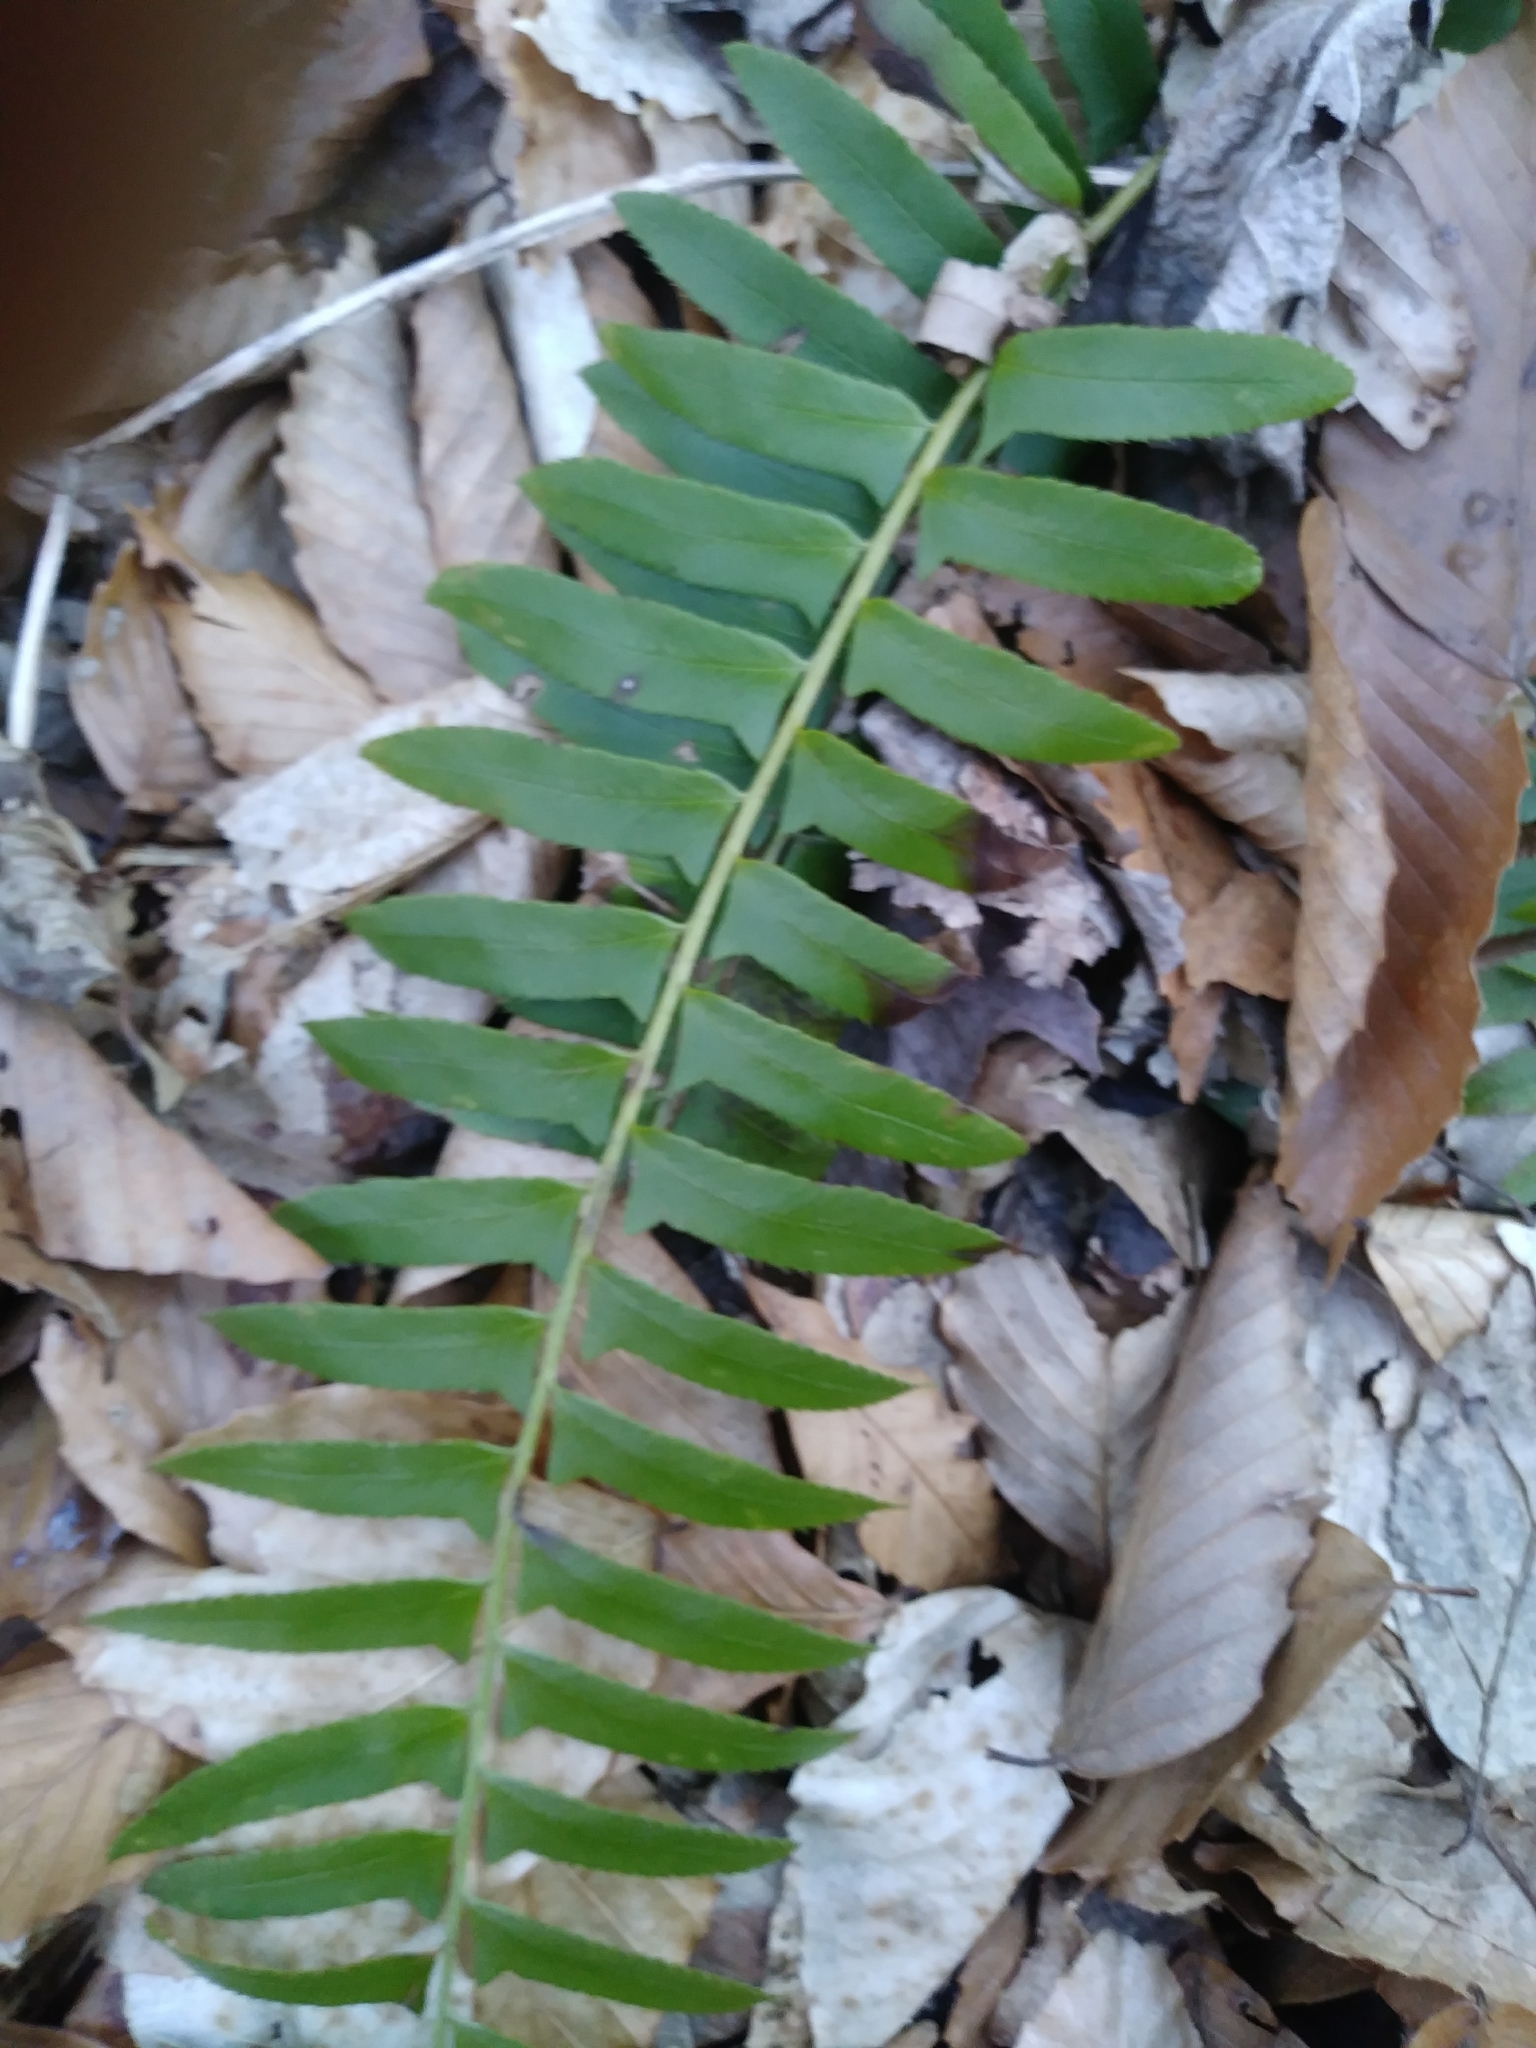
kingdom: Plantae
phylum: Tracheophyta
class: Polypodiopsida
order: Polypodiales
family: Dryopteridaceae
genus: Polystichum
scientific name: Polystichum acrostichoides
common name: Christmas fern
